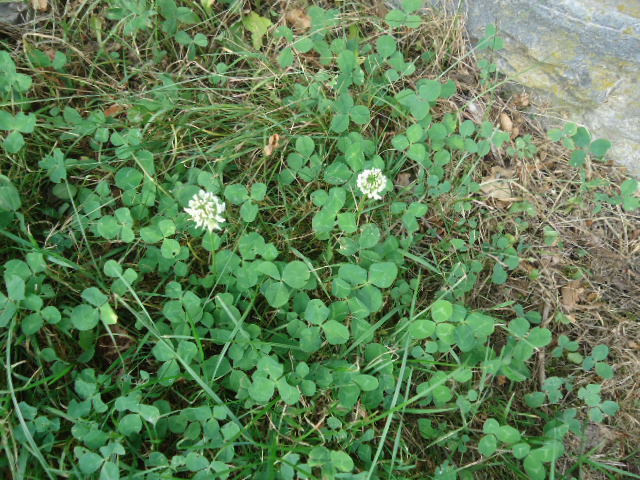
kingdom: Plantae
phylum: Tracheophyta
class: Magnoliopsida
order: Fabales
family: Fabaceae
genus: Trifolium
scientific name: Trifolium repens
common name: White clover
